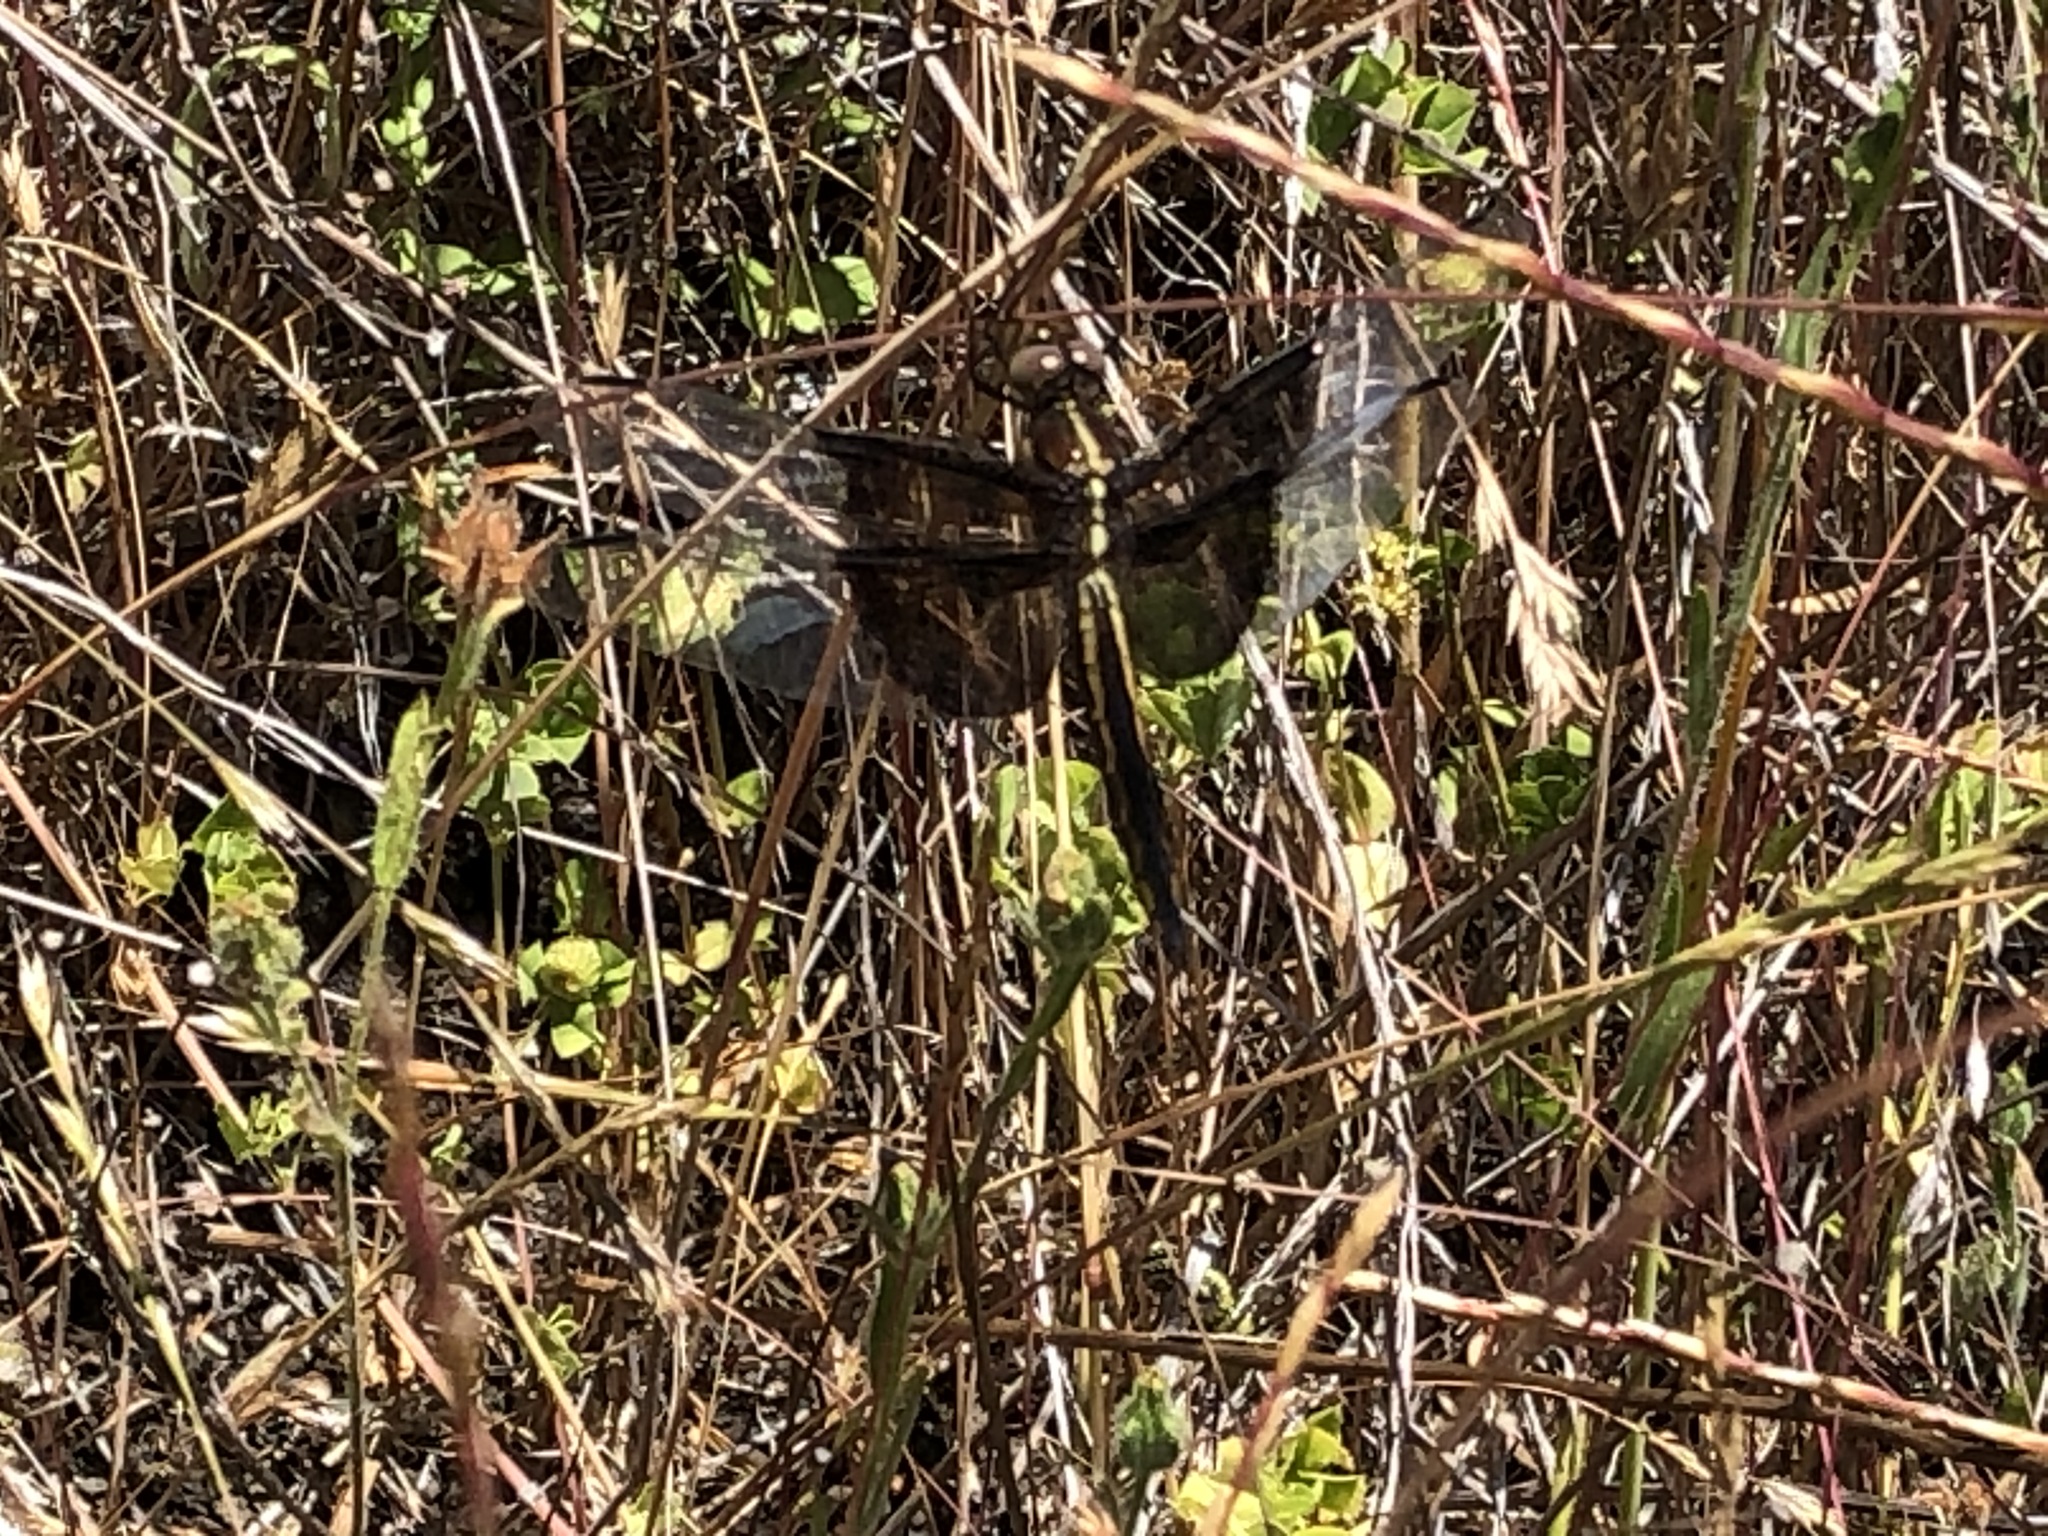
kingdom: Animalia
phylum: Arthropoda
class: Insecta
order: Odonata
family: Libellulidae
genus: Libellula
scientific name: Libellula luctuosa
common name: Widow skimmer
